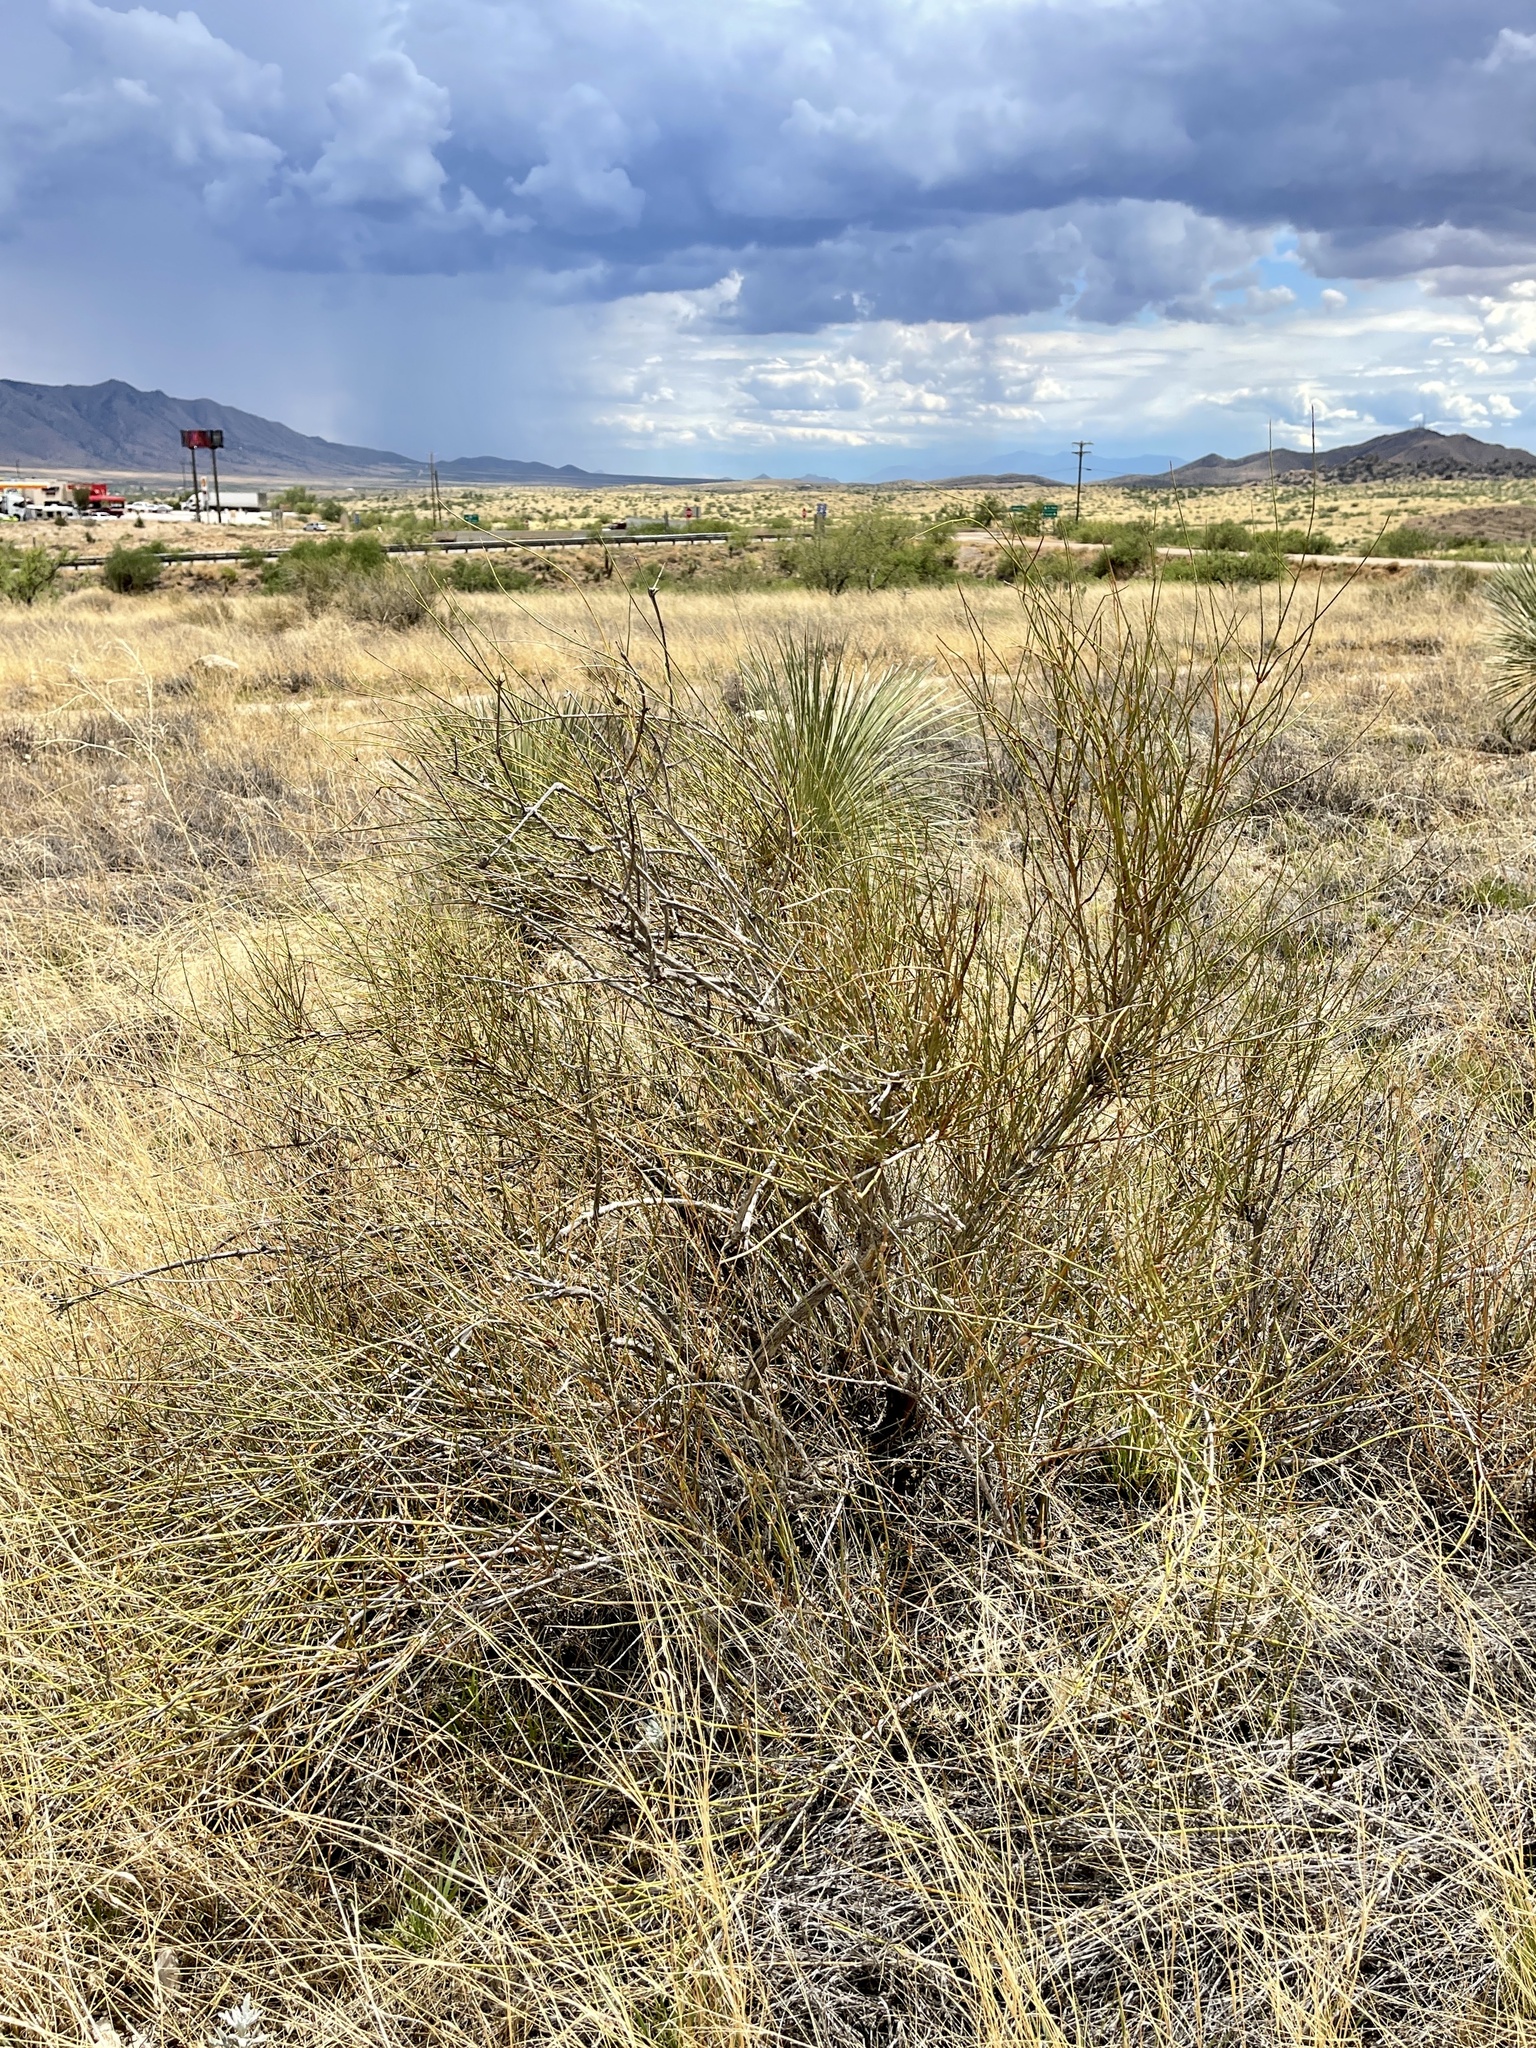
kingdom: Plantae
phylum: Tracheophyta
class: Gnetopsida
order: Ephedrales
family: Ephedraceae
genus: Ephedra
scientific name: Ephedra trifurca
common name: Mexican-tea
